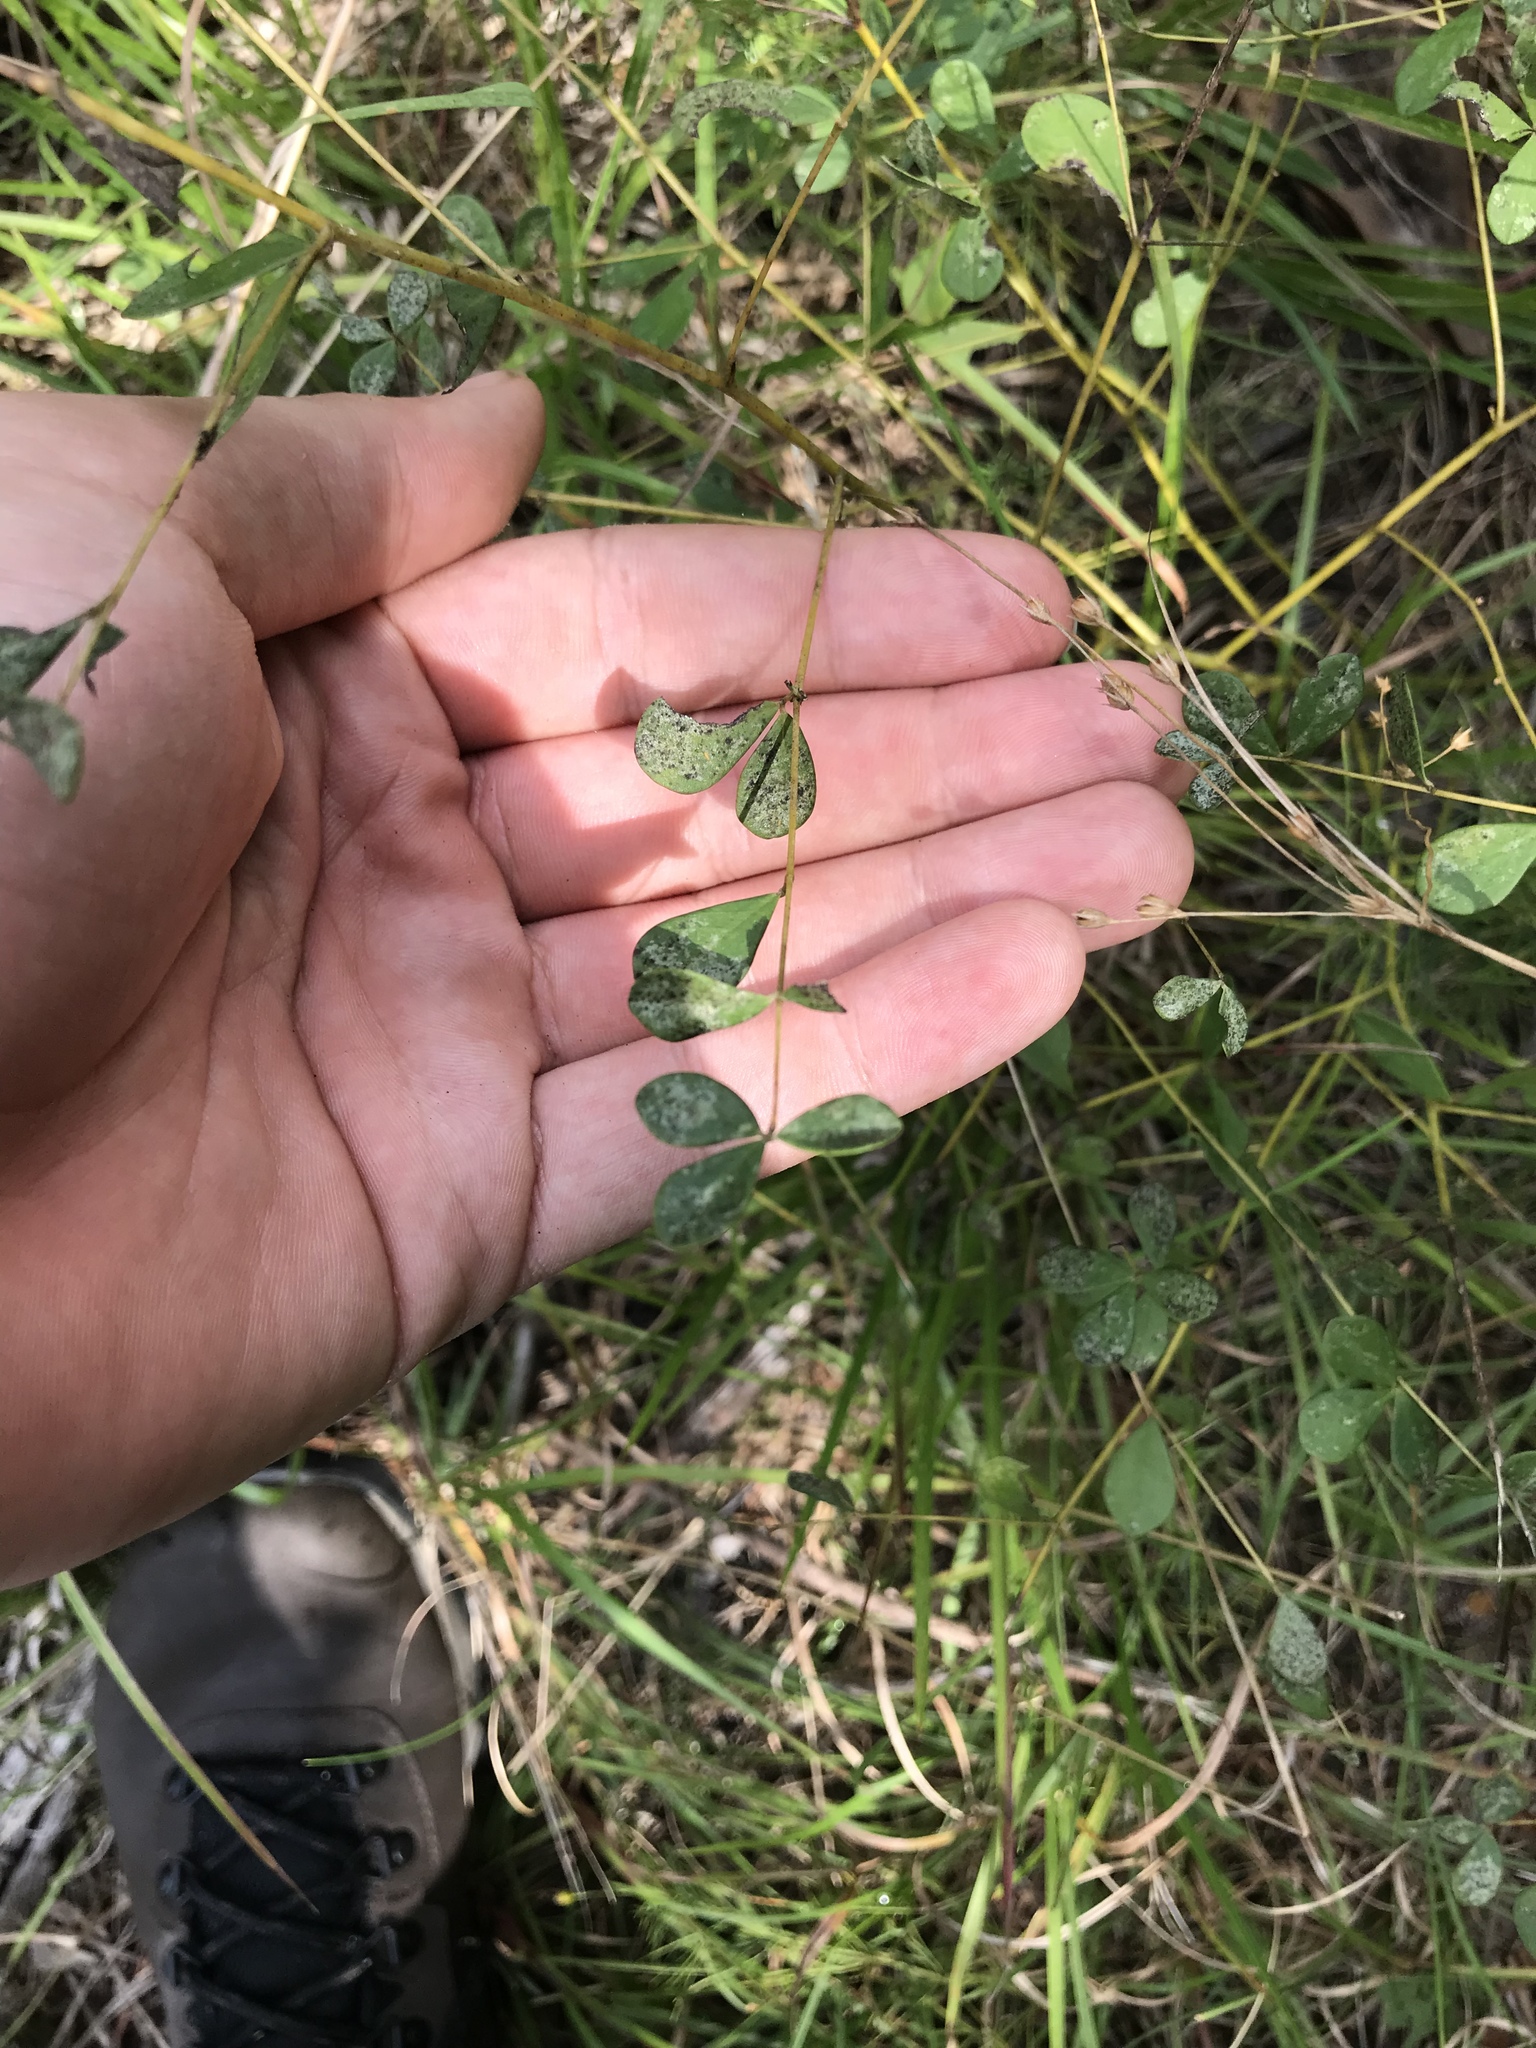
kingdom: Plantae
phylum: Tracheophyta
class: Magnoliopsida
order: Fabales
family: Fabaceae
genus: Baptisia
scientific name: Baptisia tinctoria
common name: Wild indigo
